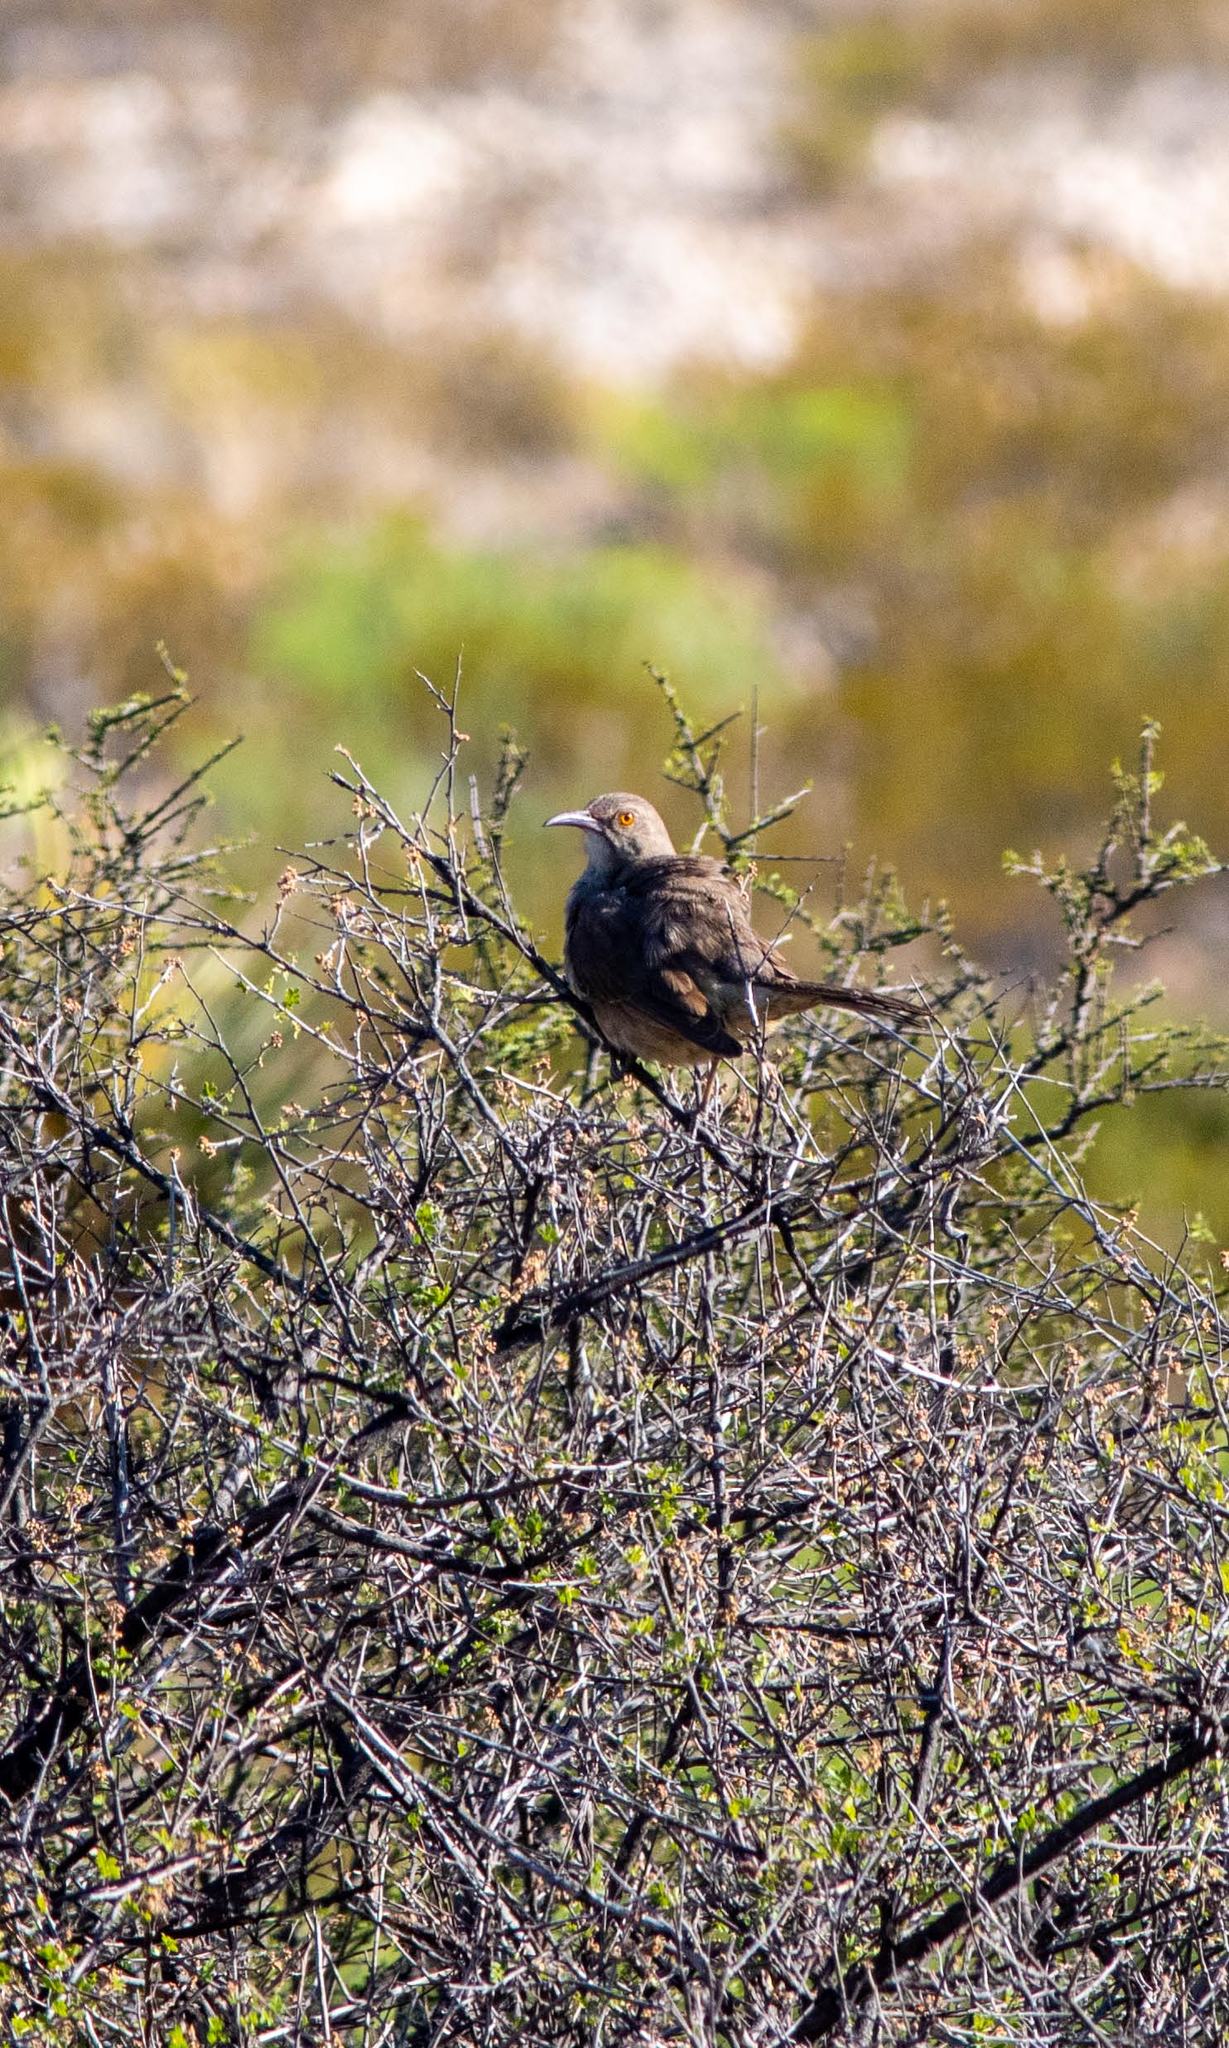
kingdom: Animalia
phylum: Chordata
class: Aves
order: Passeriformes
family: Mimidae
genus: Toxostoma
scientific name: Toxostoma curvirostre
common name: Curve-billed thrasher
